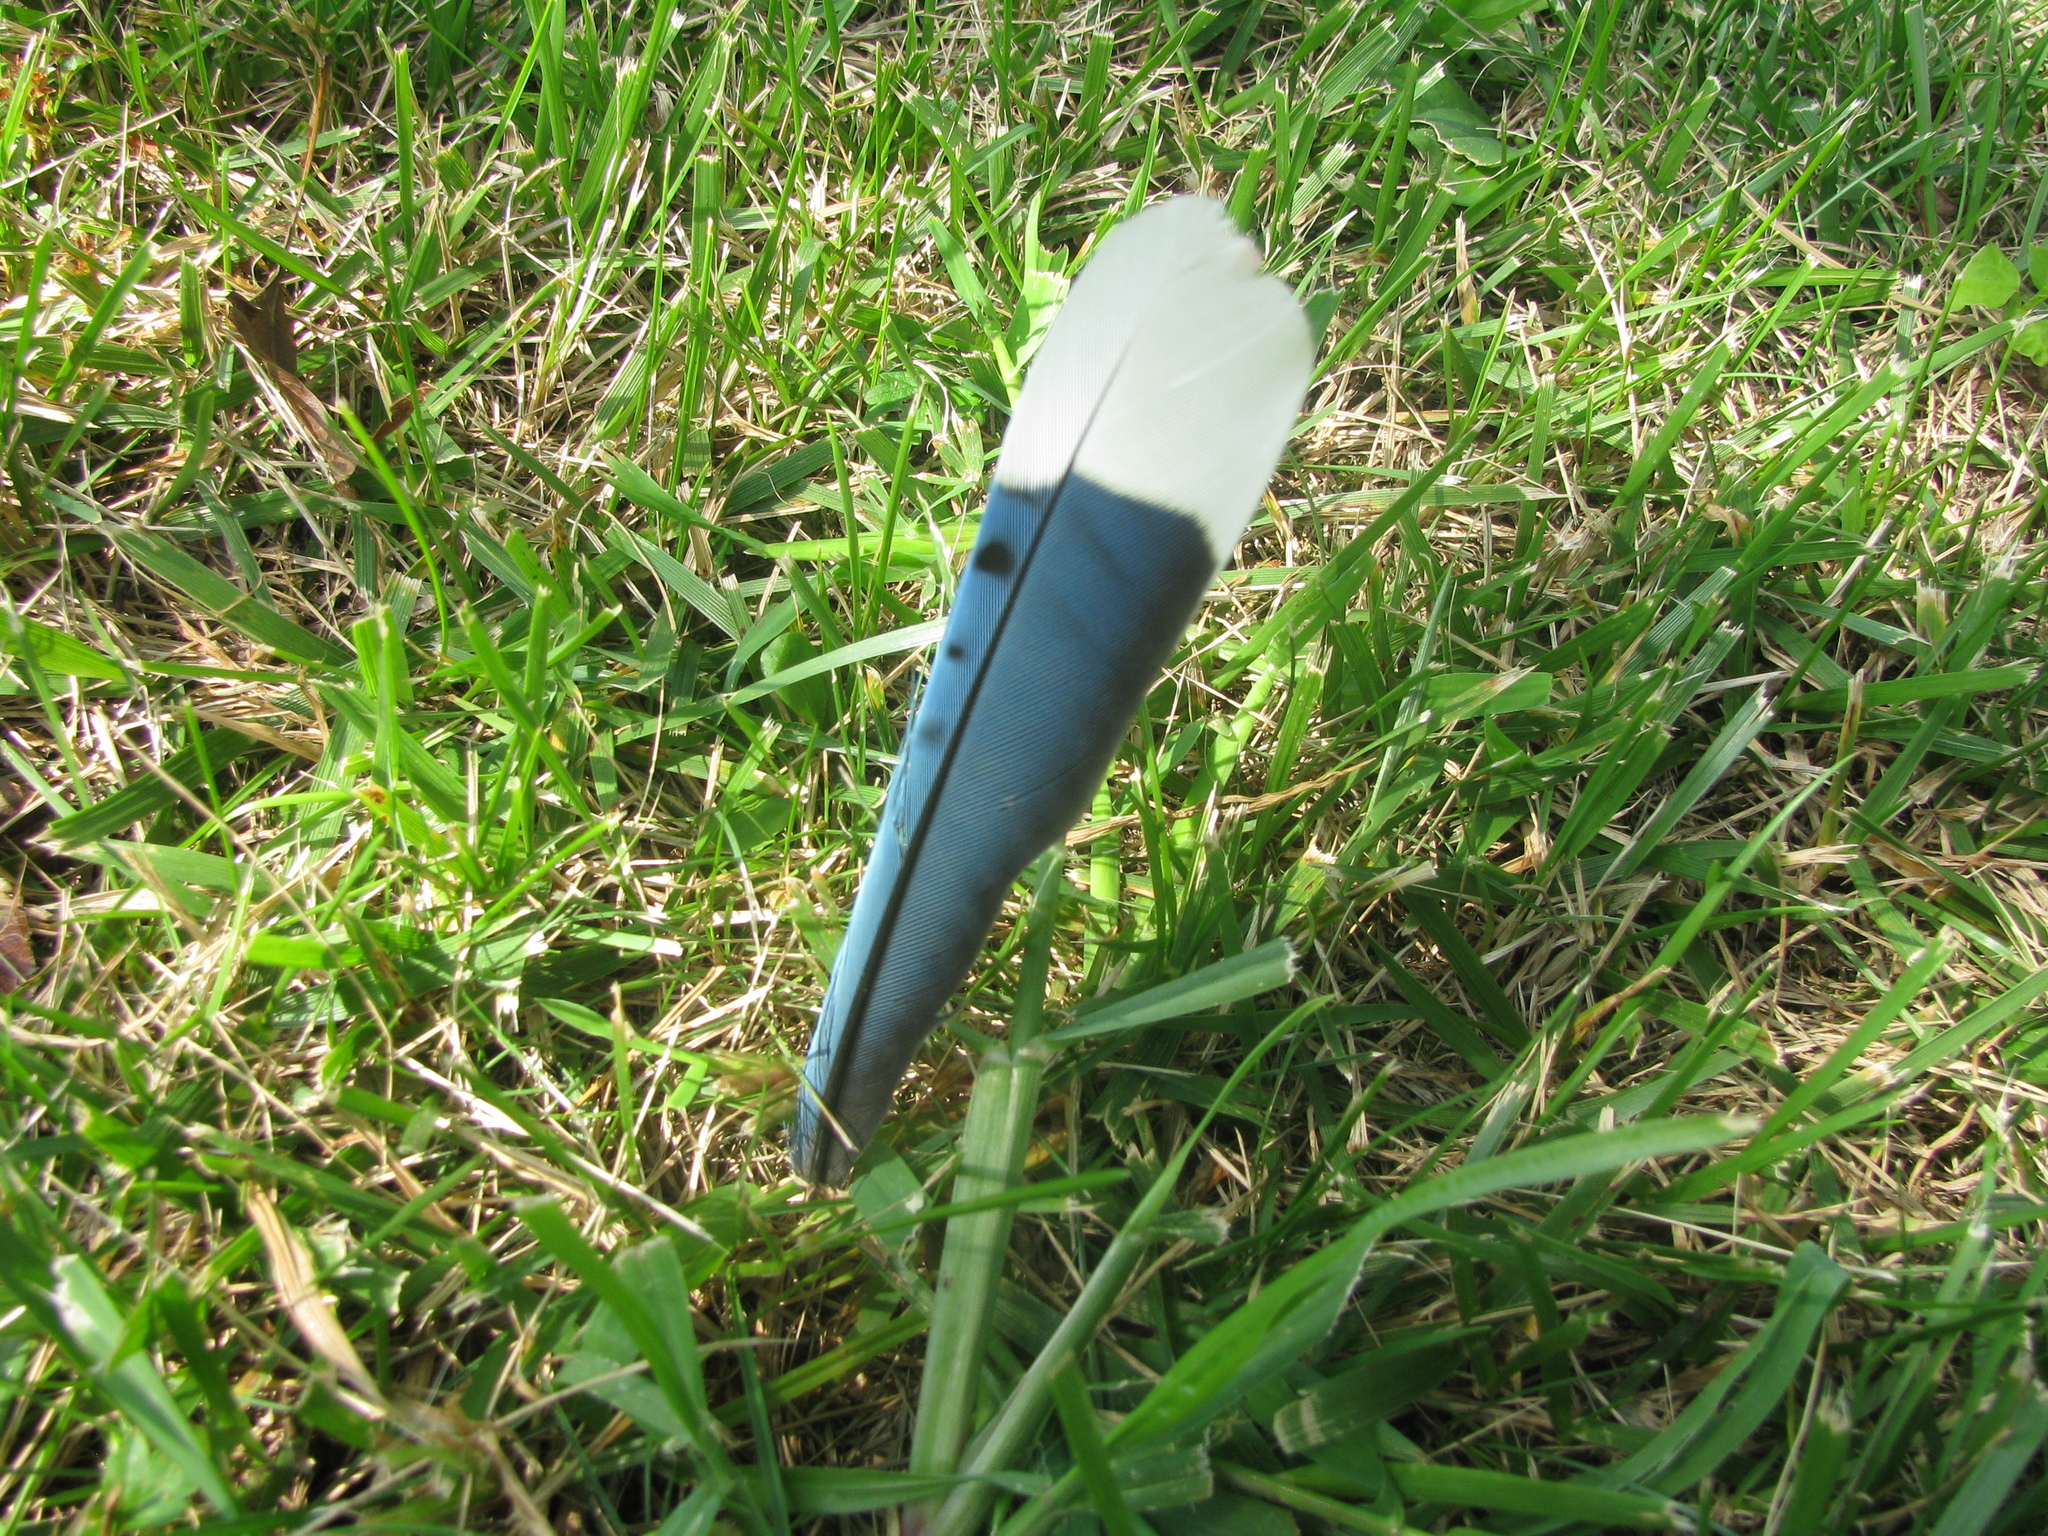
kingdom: Animalia
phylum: Chordata
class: Aves
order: Passeriformes
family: Corvidae
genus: Cyanocitta
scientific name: Cyanocitta cristata
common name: Blue jay
